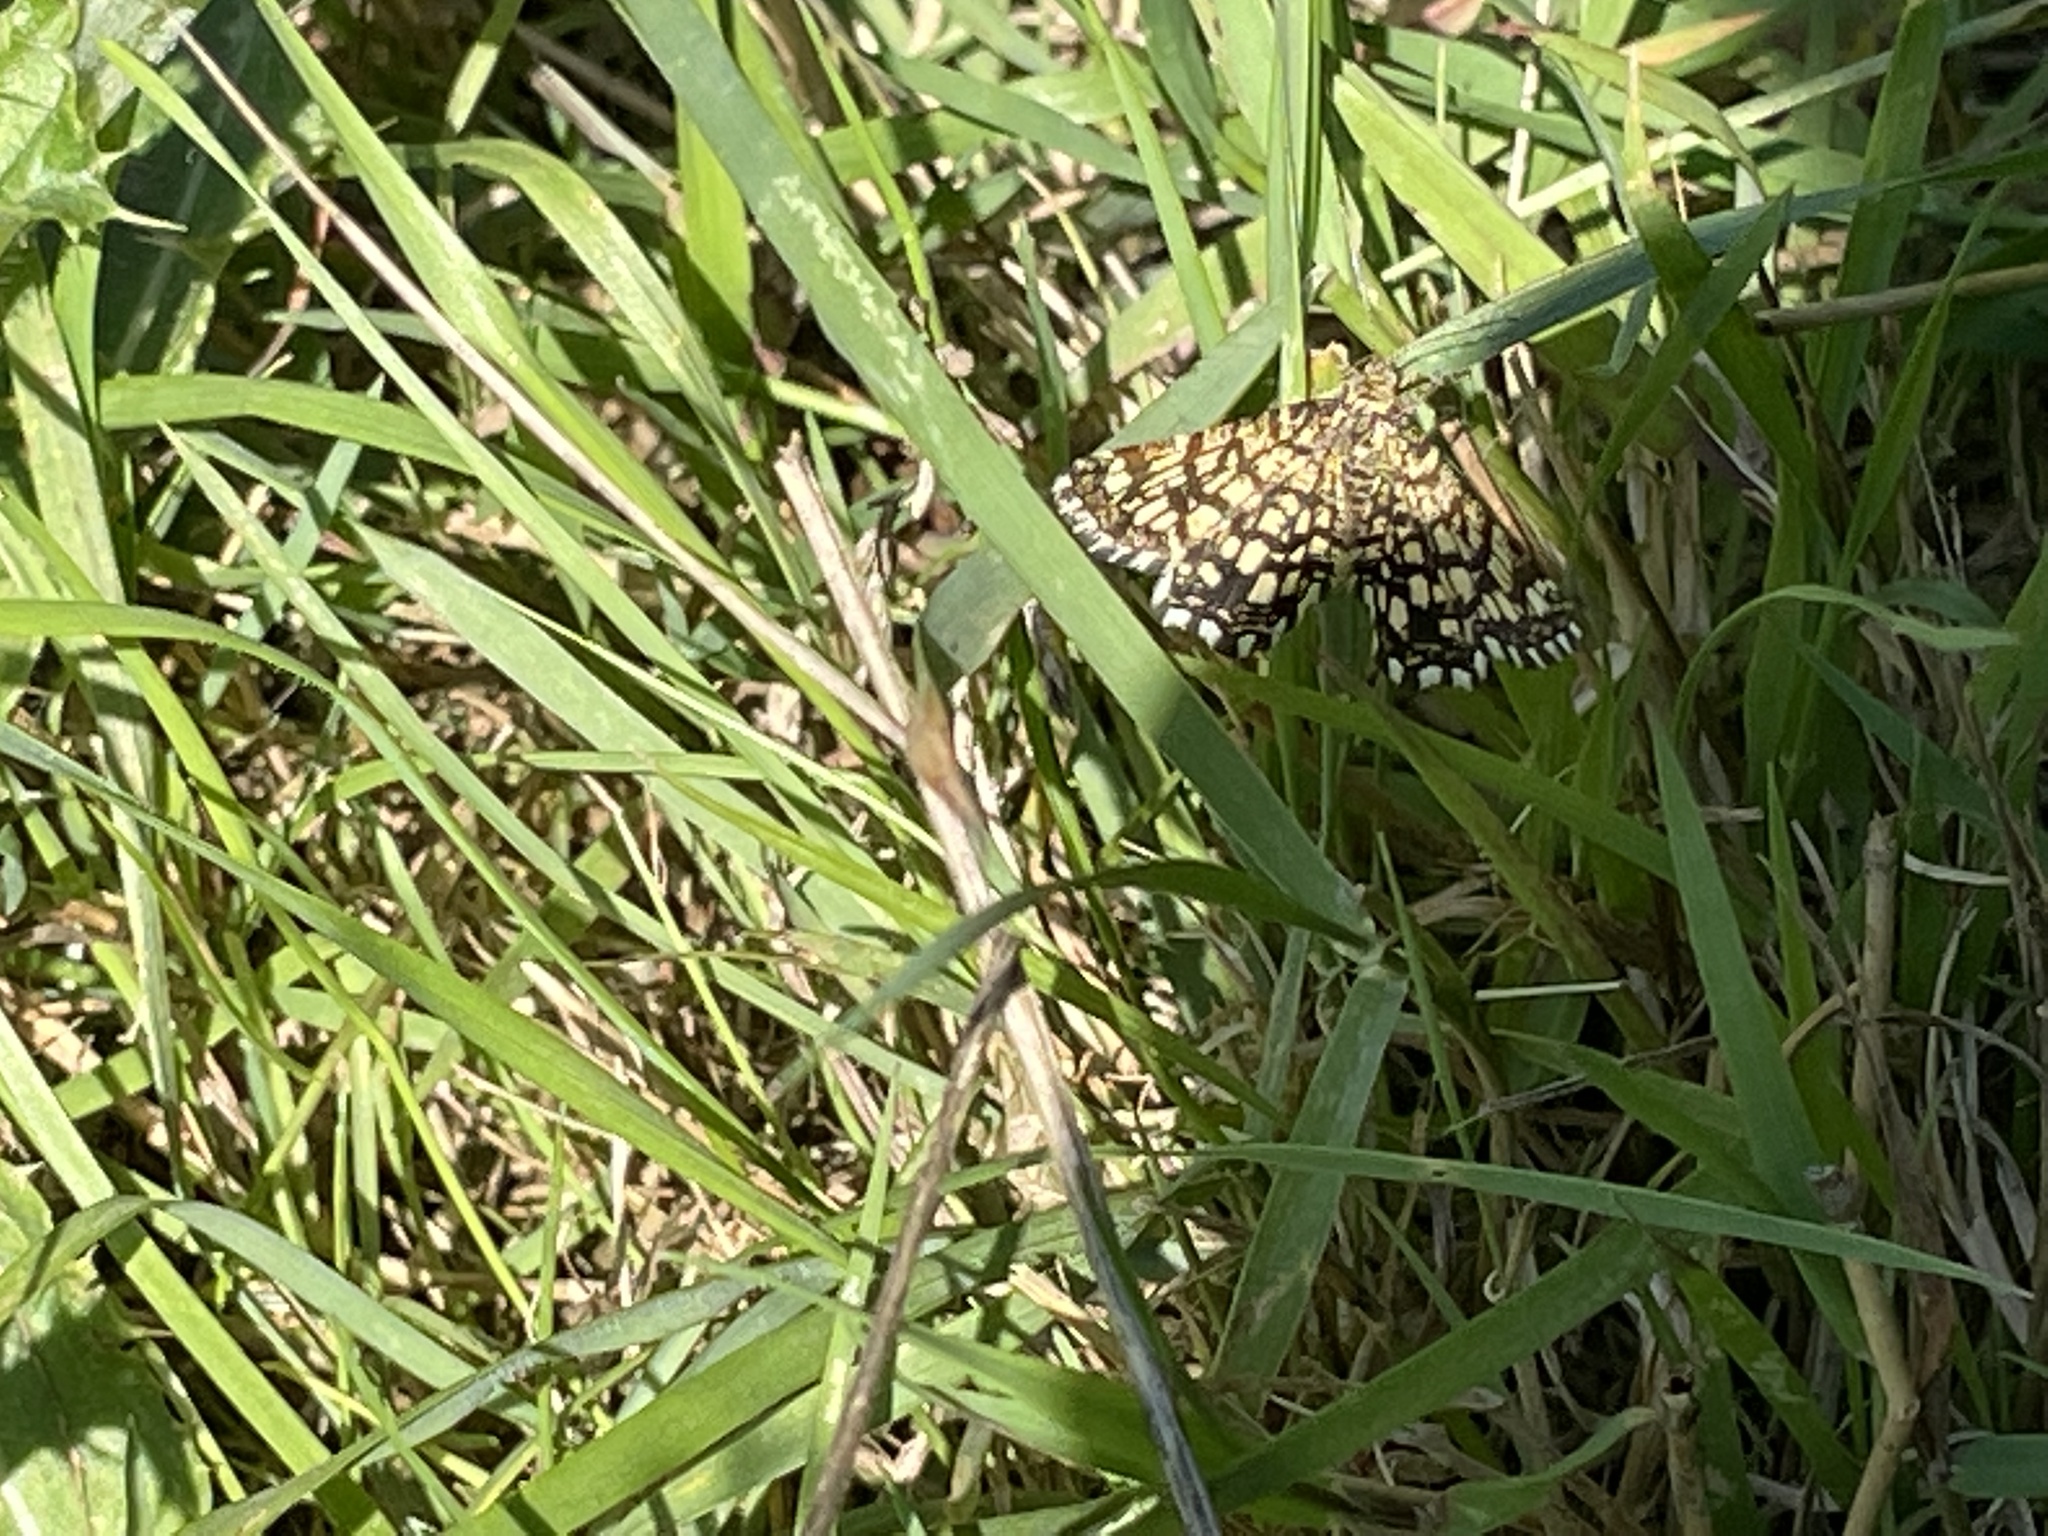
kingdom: Animalia
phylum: Arthropoda
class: Insecta
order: Lepidoptera
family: Geometridae
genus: Chiasmia
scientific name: Chiasmia clathrata
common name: Latticed heath
